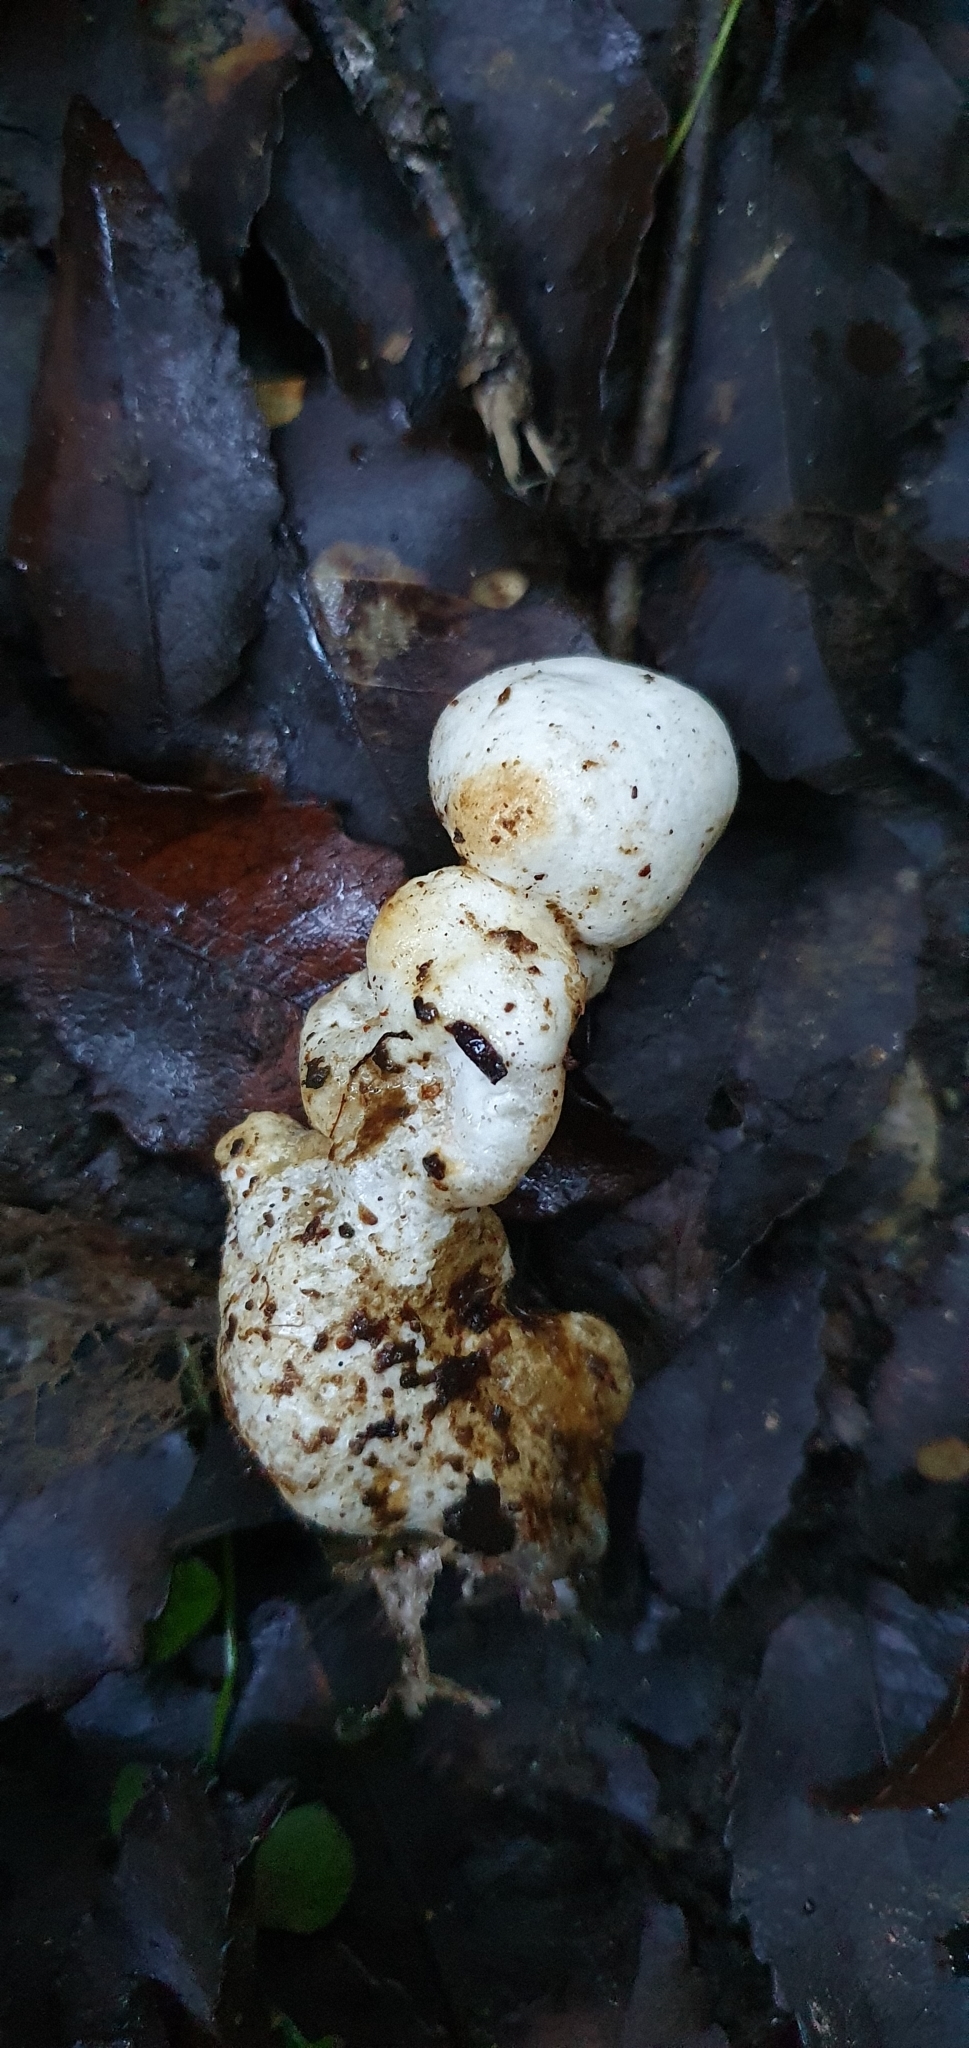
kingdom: Fungi
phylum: Basidiomycota
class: Agaricomycetes
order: Hysterangiales
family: Trappeaceae
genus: Phallobata
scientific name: Phallobata alba
